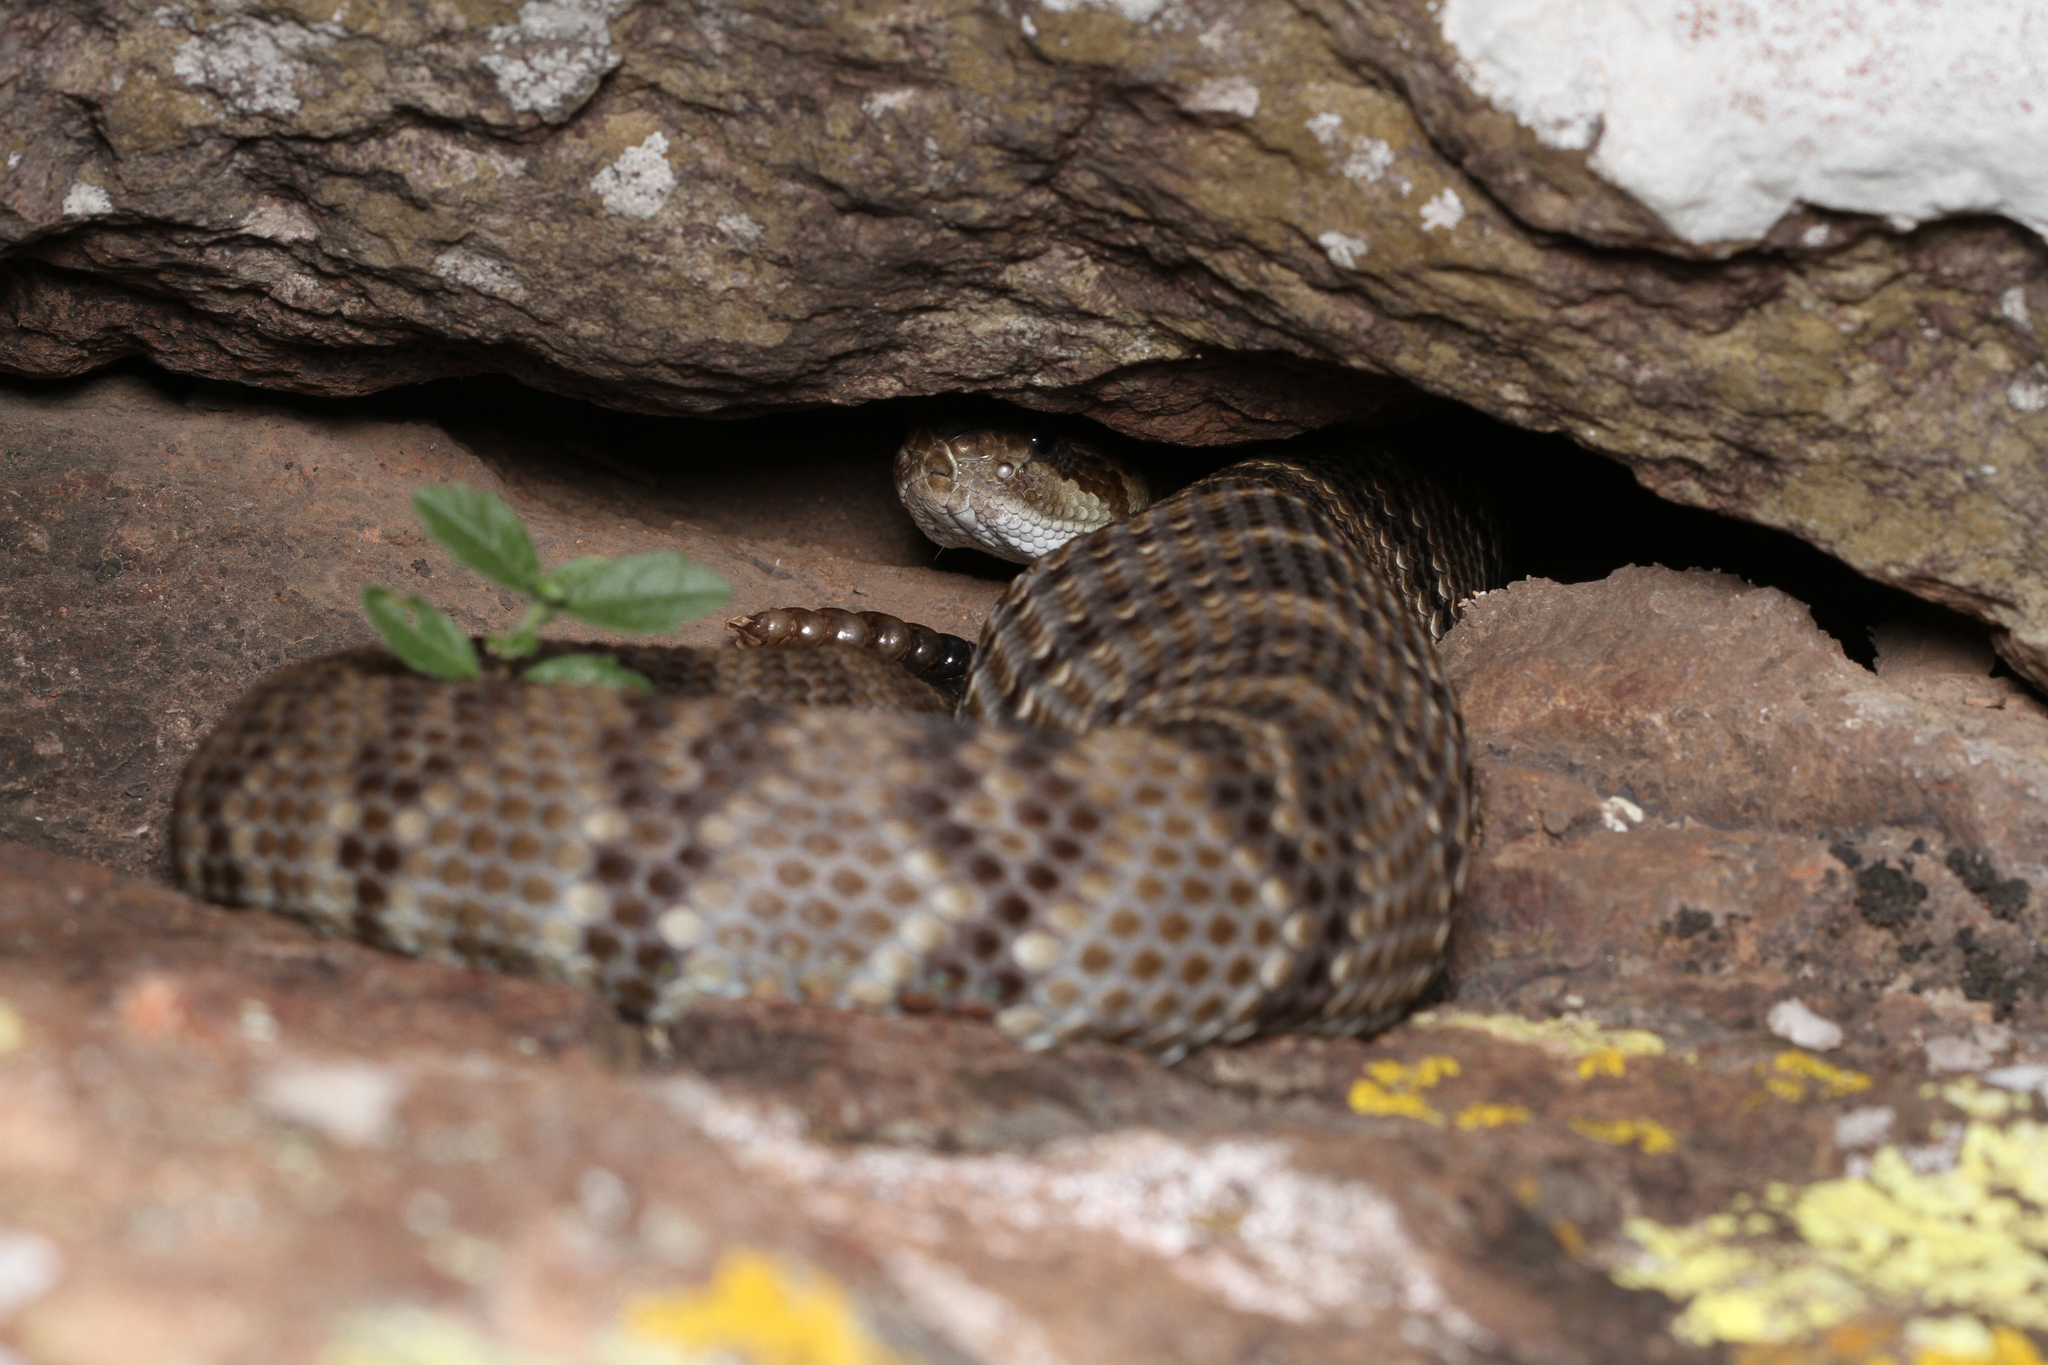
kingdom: Animalia
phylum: Chordata
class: Squamata
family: Viperidae
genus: Crotalus
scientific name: Crotalus ornatus
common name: Black-tailed rattlesnake
